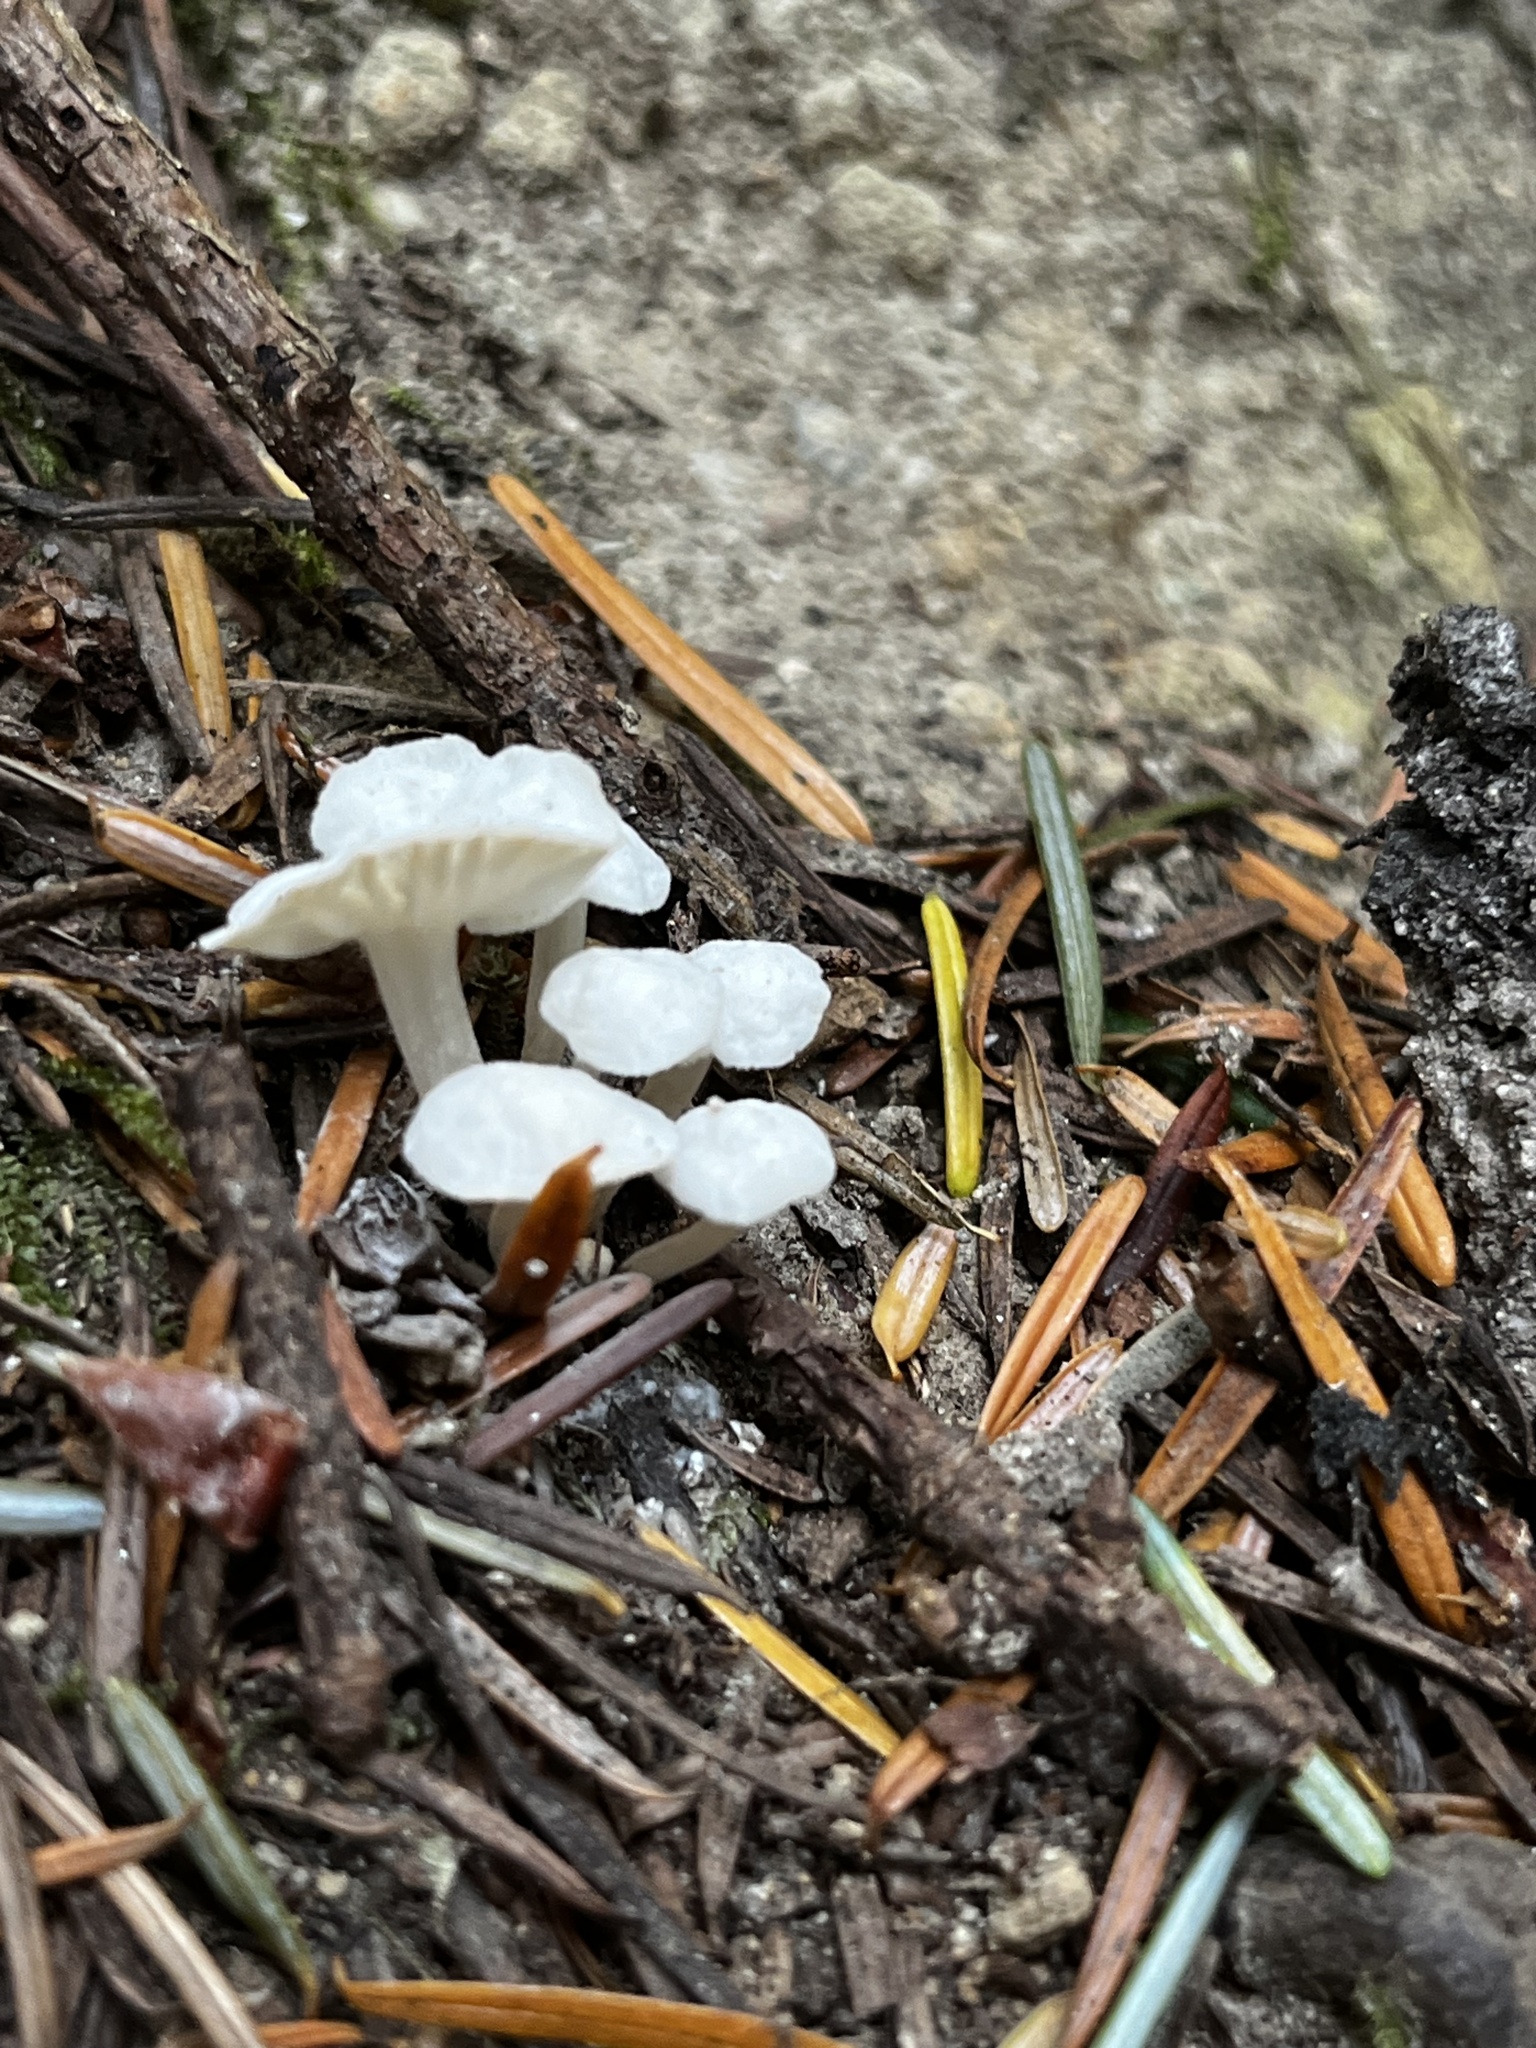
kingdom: Fungi
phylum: Basidiomycota
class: Agaricomycetes
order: Agaricales
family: Omphalotaceae
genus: Marasmiellus
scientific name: Marasmiellus candidus
